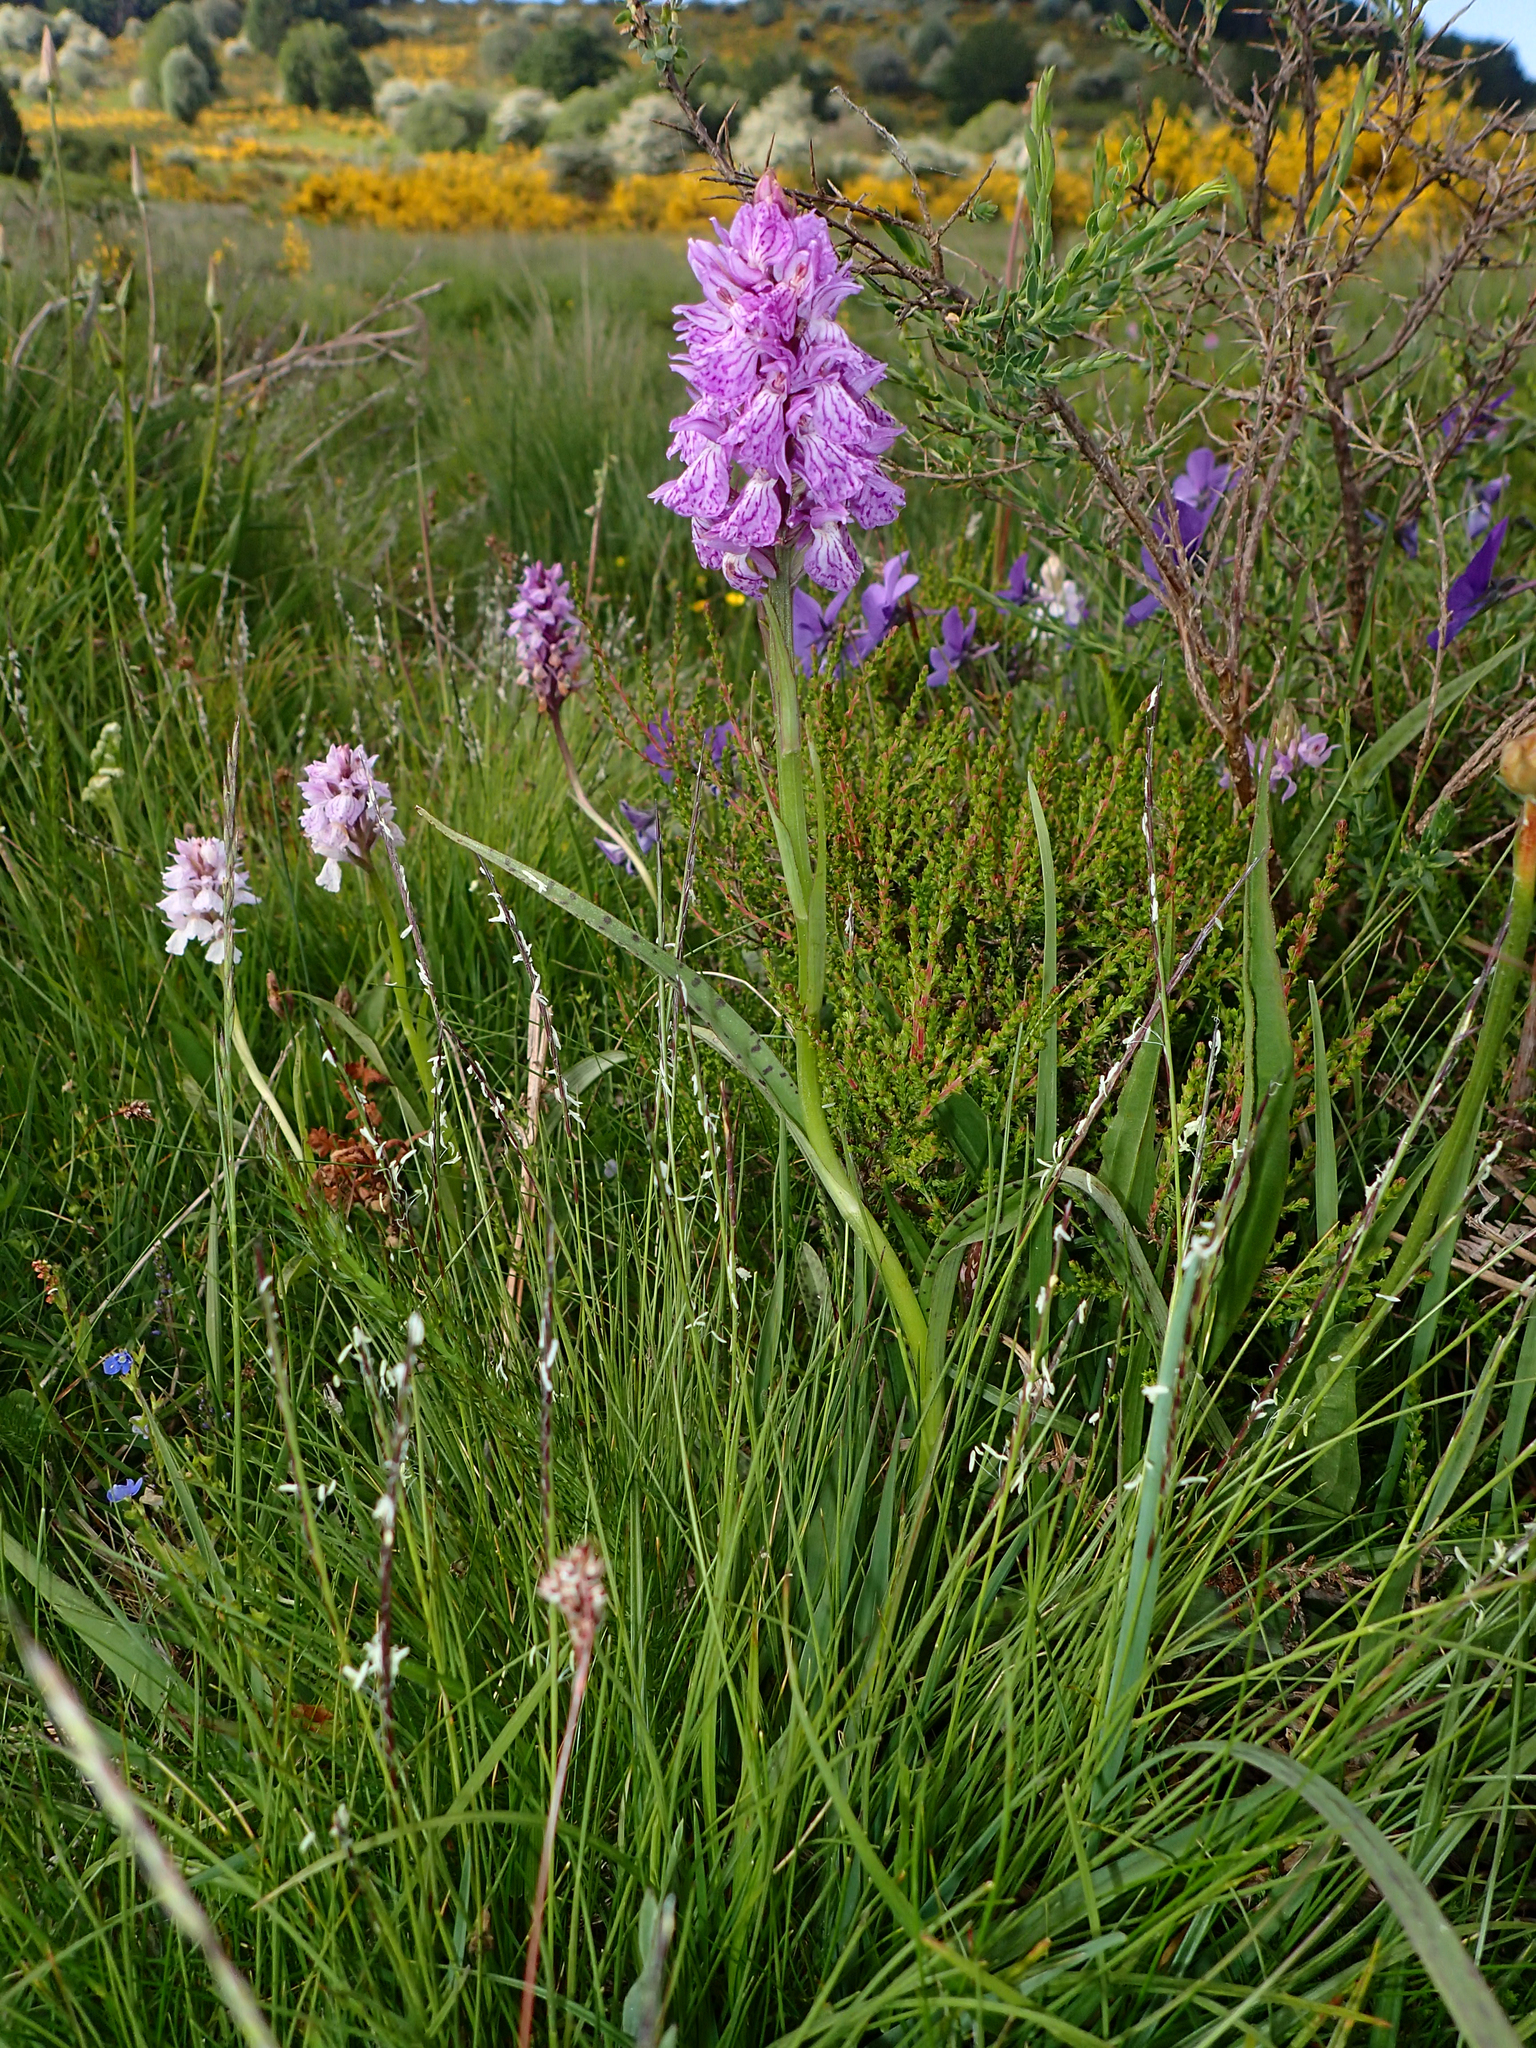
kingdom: Plantae
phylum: Tracheophyta
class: Liliopsida
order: Asparagales
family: Orchidaceae
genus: Dactylorhiza
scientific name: Dactylorhiza maculata
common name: Heath spotted-orchid
